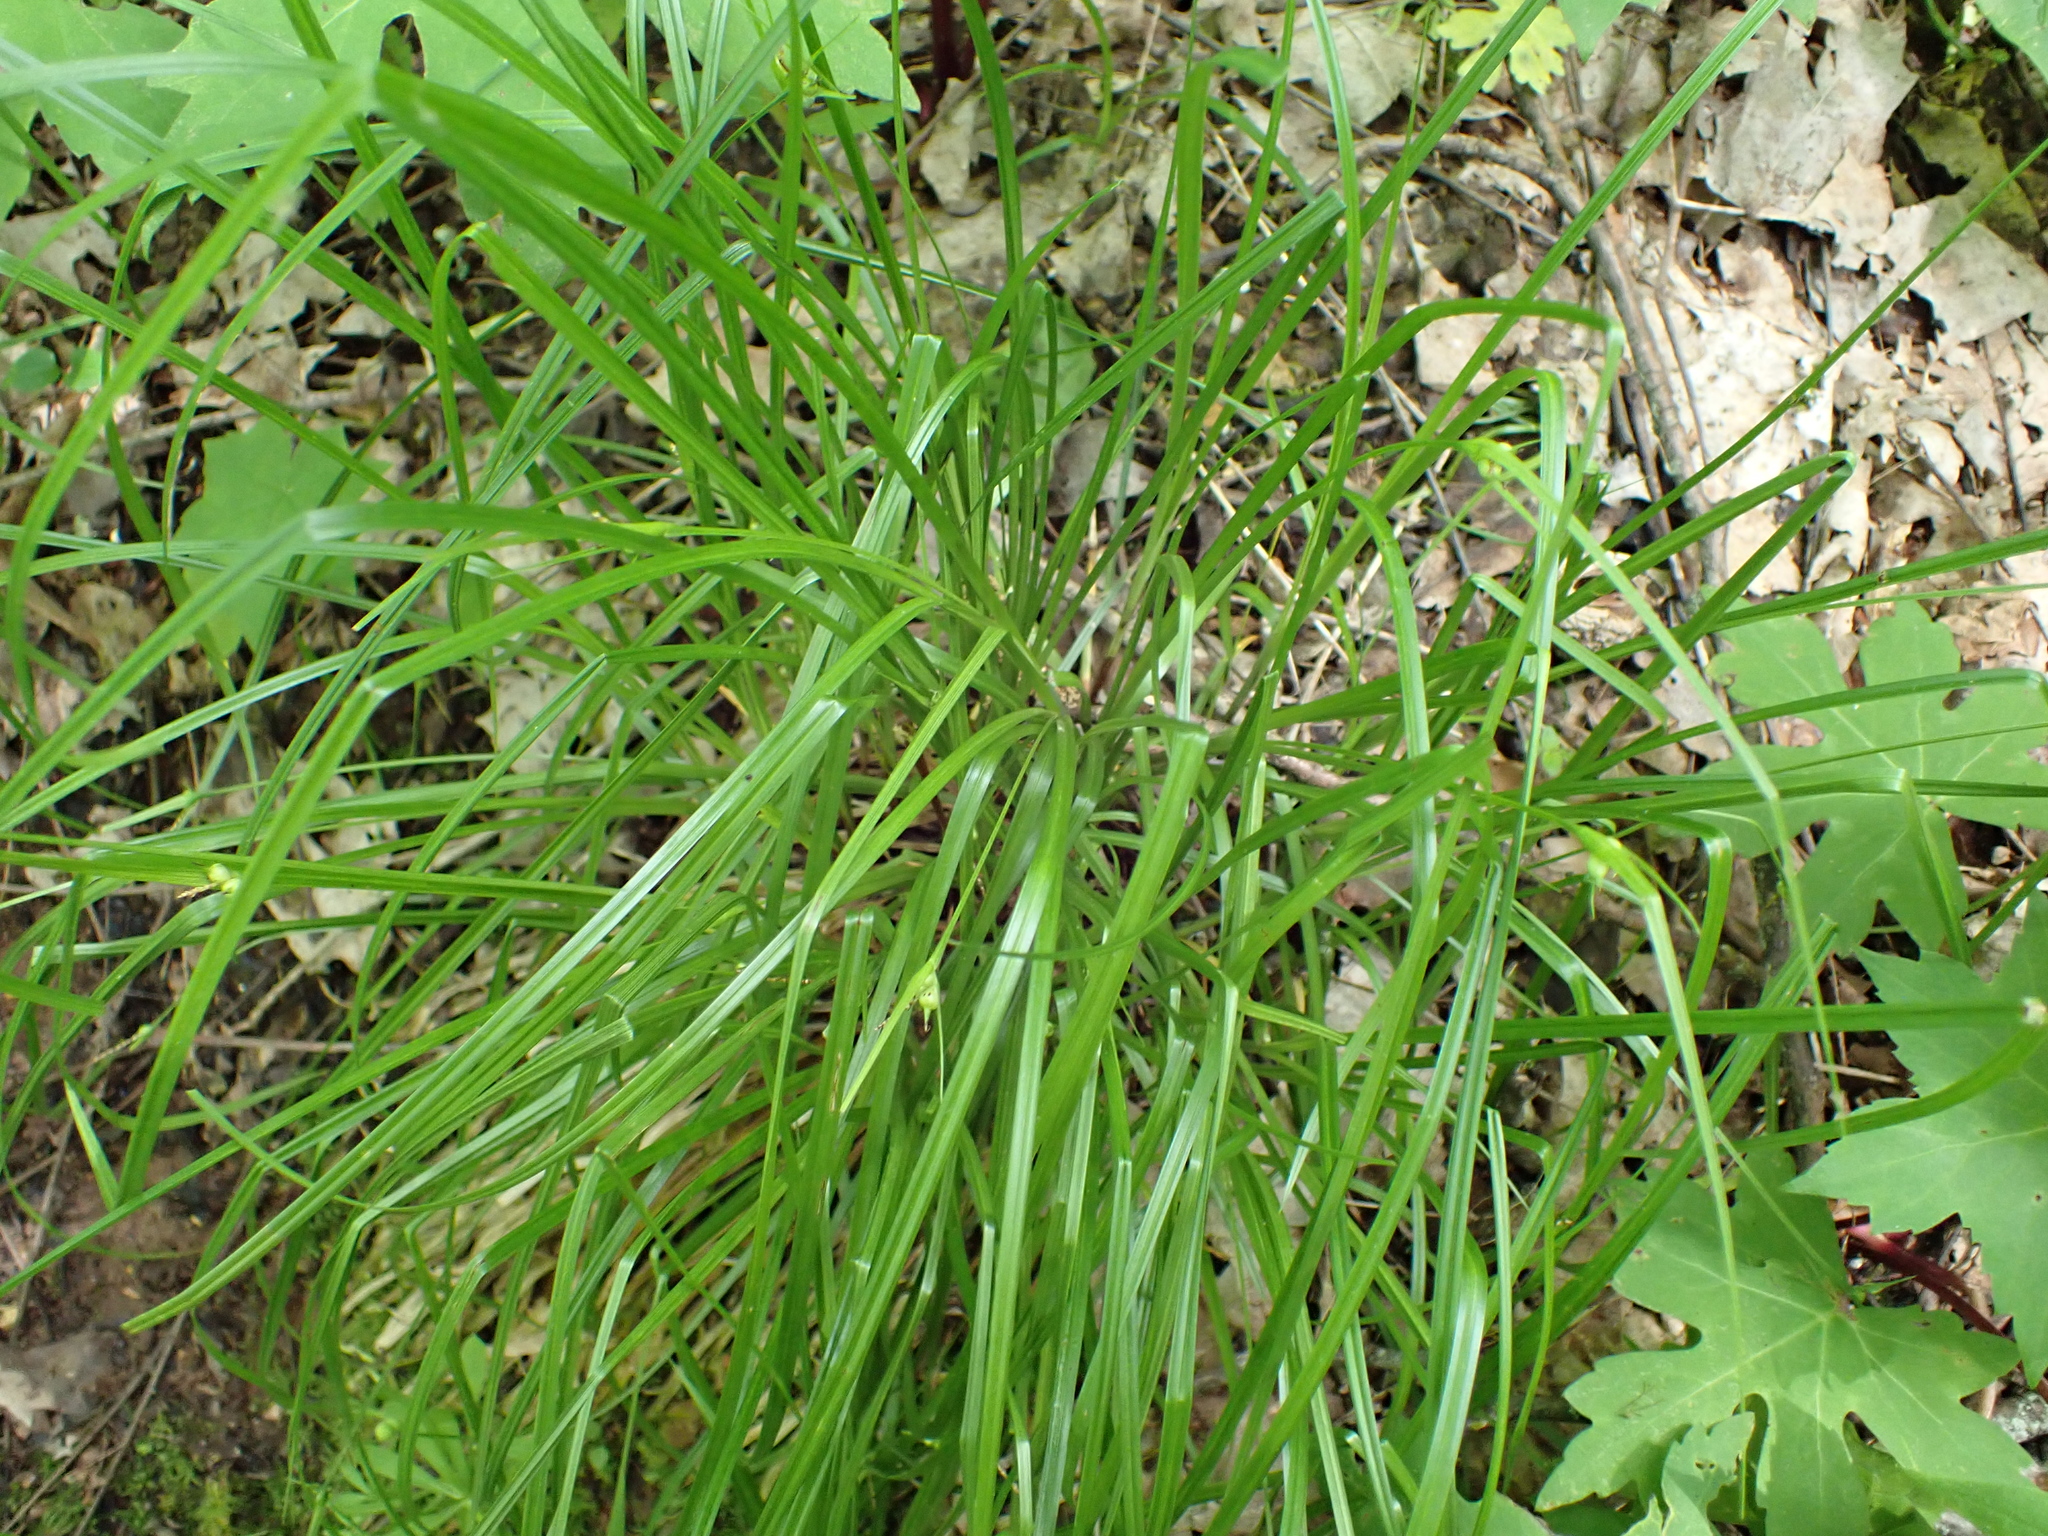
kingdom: Plantae
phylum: Tracheophyta
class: Liliopsida
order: Poales
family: Cyperaceae
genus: Carex
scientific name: Carex jamesii
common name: Grass sedge
